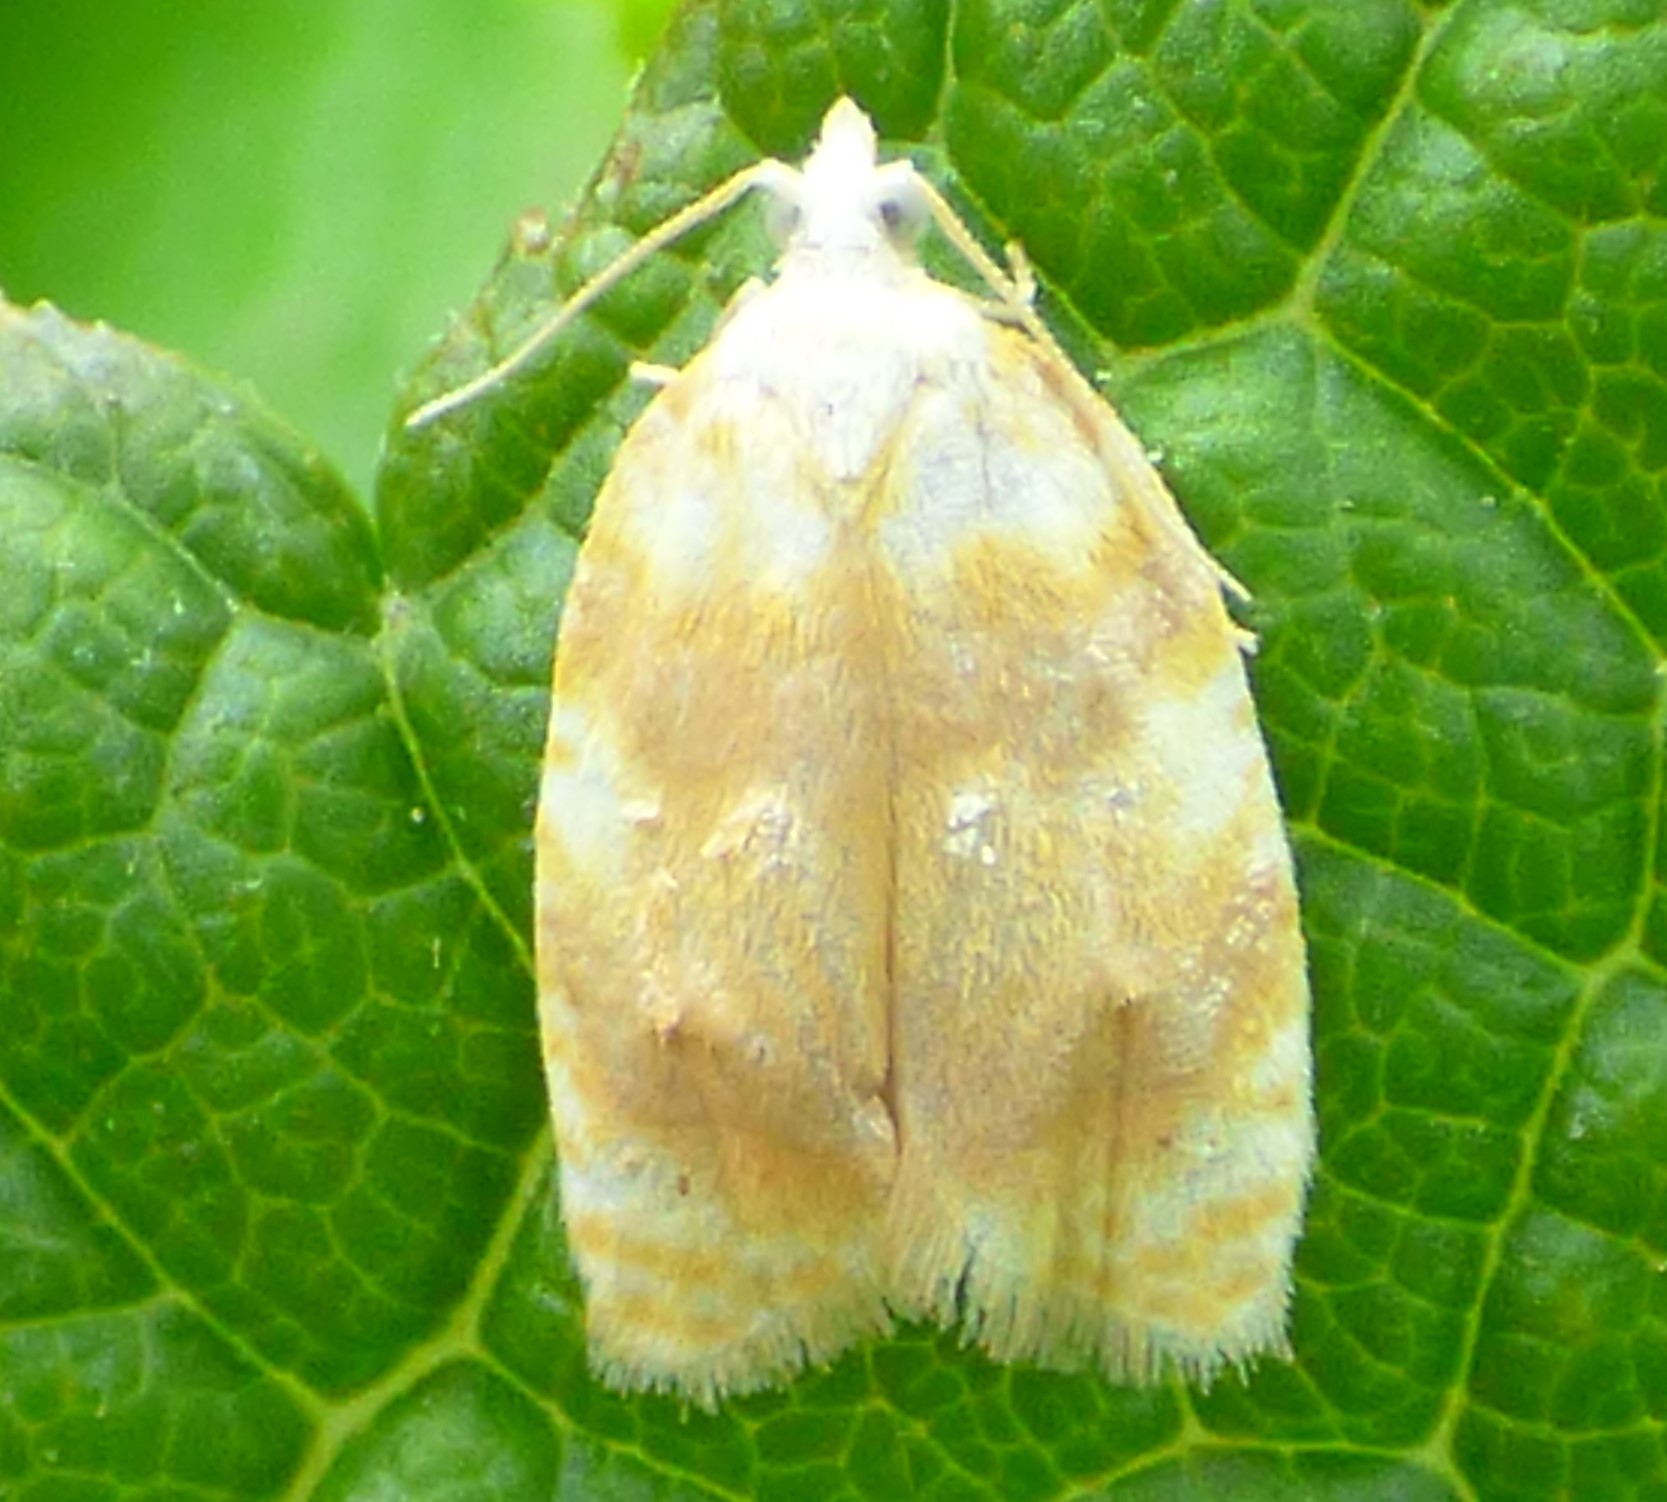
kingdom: Animalia
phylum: Arthropoda
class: Insecta
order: Lepidoptera
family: Tortricidae
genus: Acleris
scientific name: Acleris semipurpurana
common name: Oak leaftier moth
